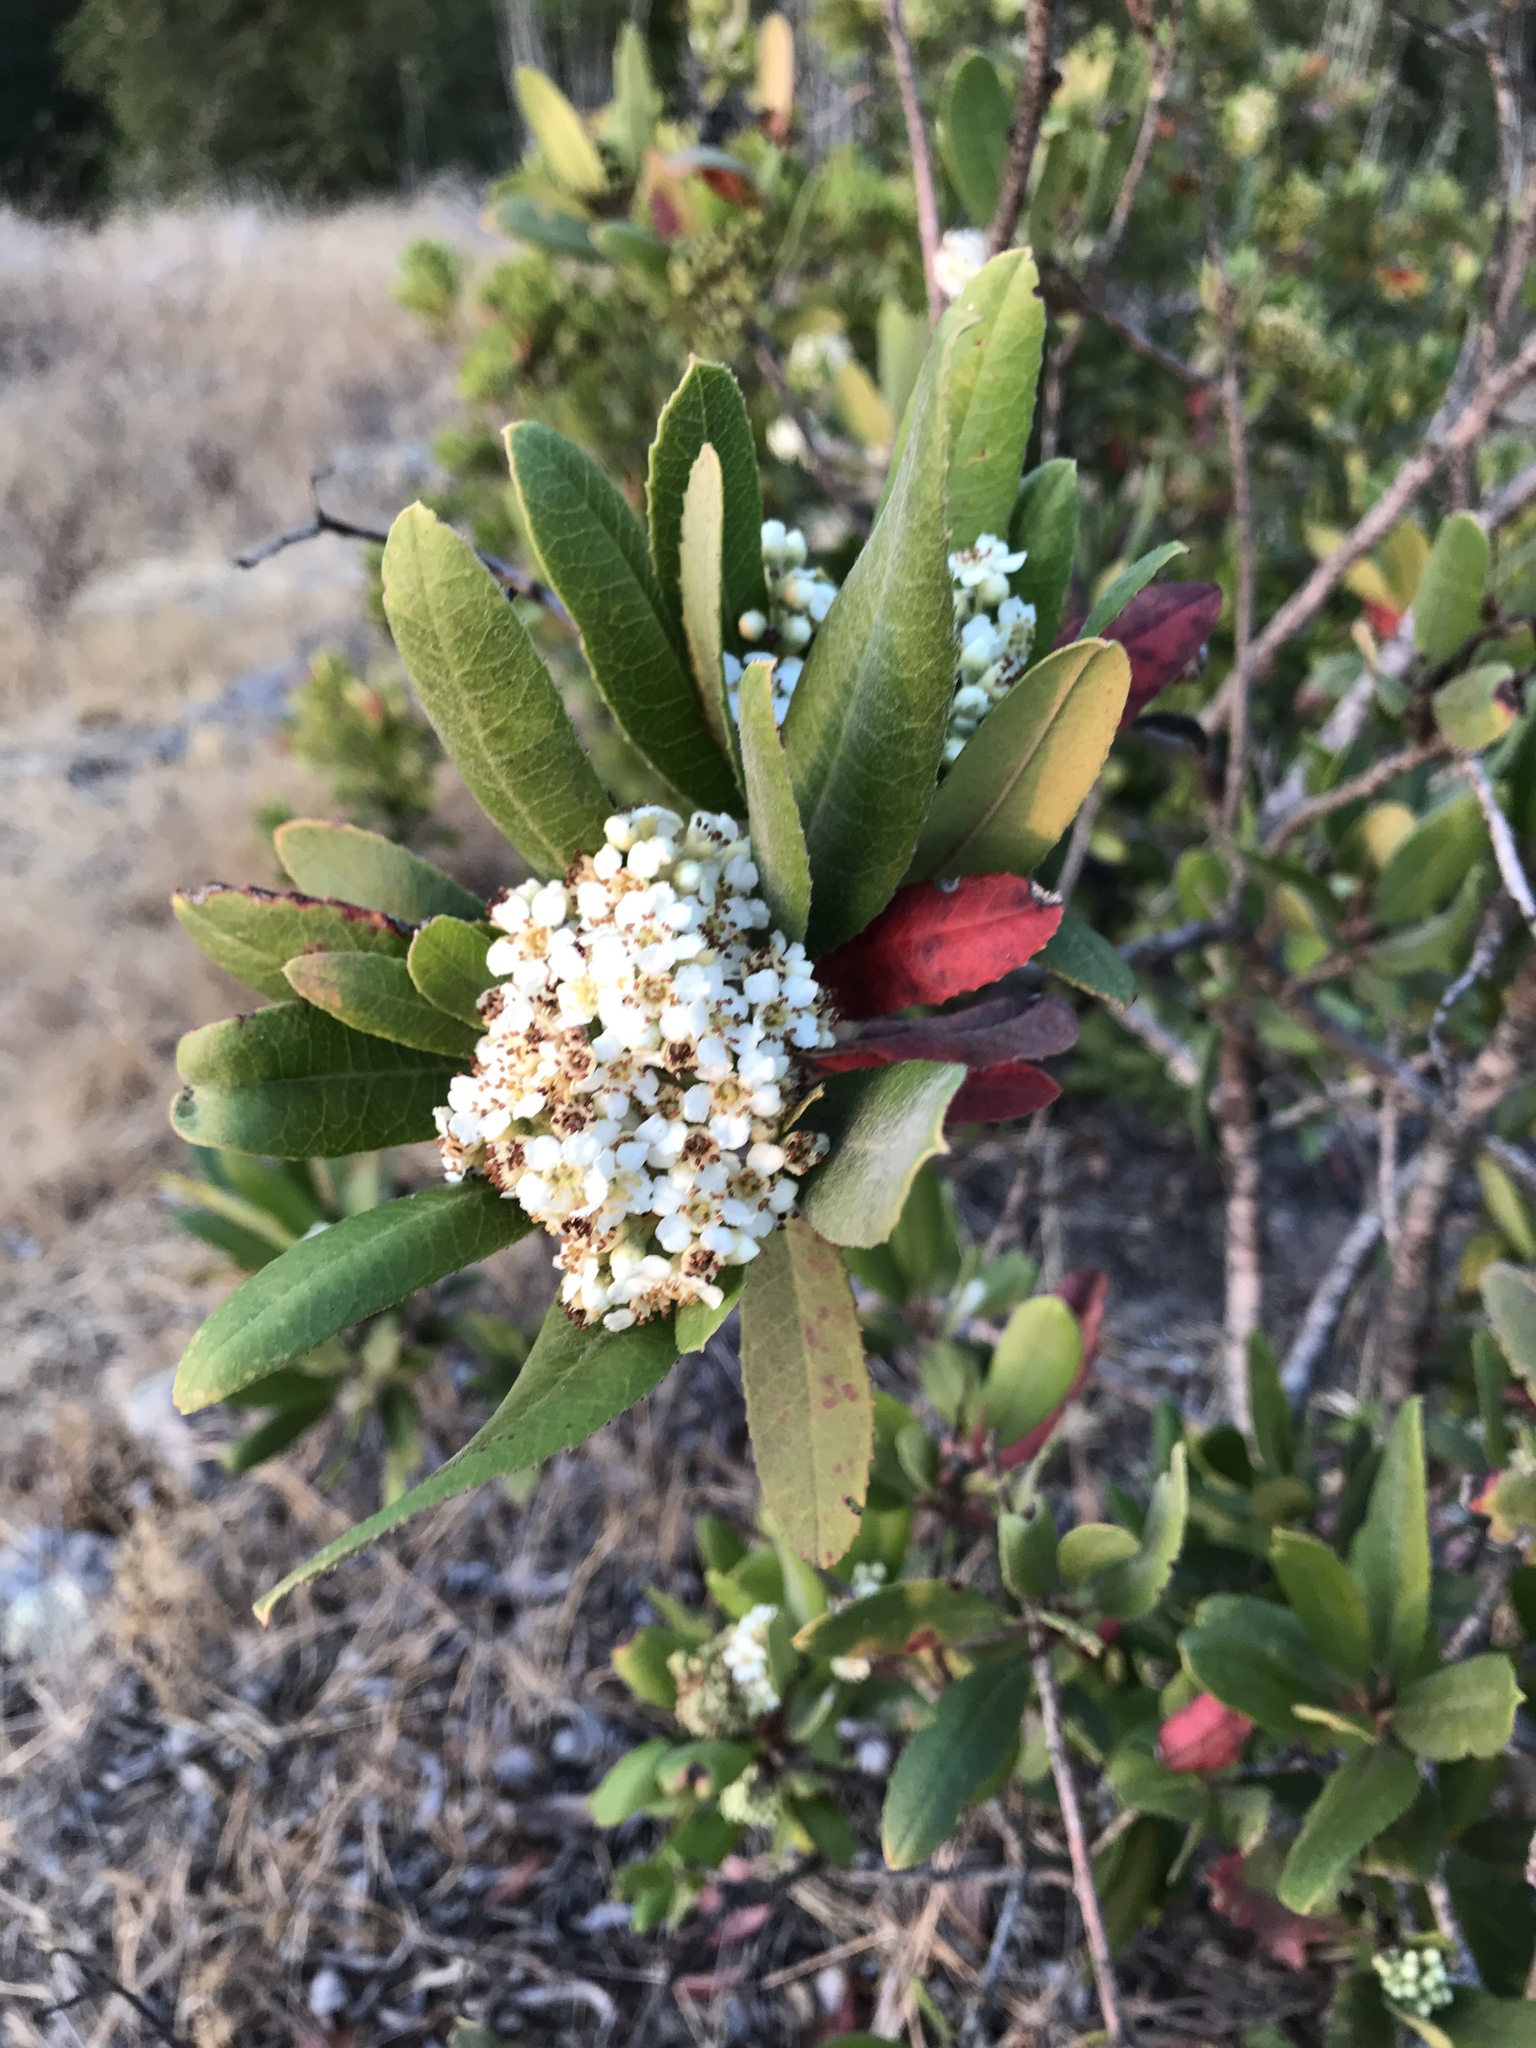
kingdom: Plantae
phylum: Tracheophyta
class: Magnoliopsida
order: Rosales
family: Rosaceae
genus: Heteromeles
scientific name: Heteromeles arbutifolia
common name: California-holly
